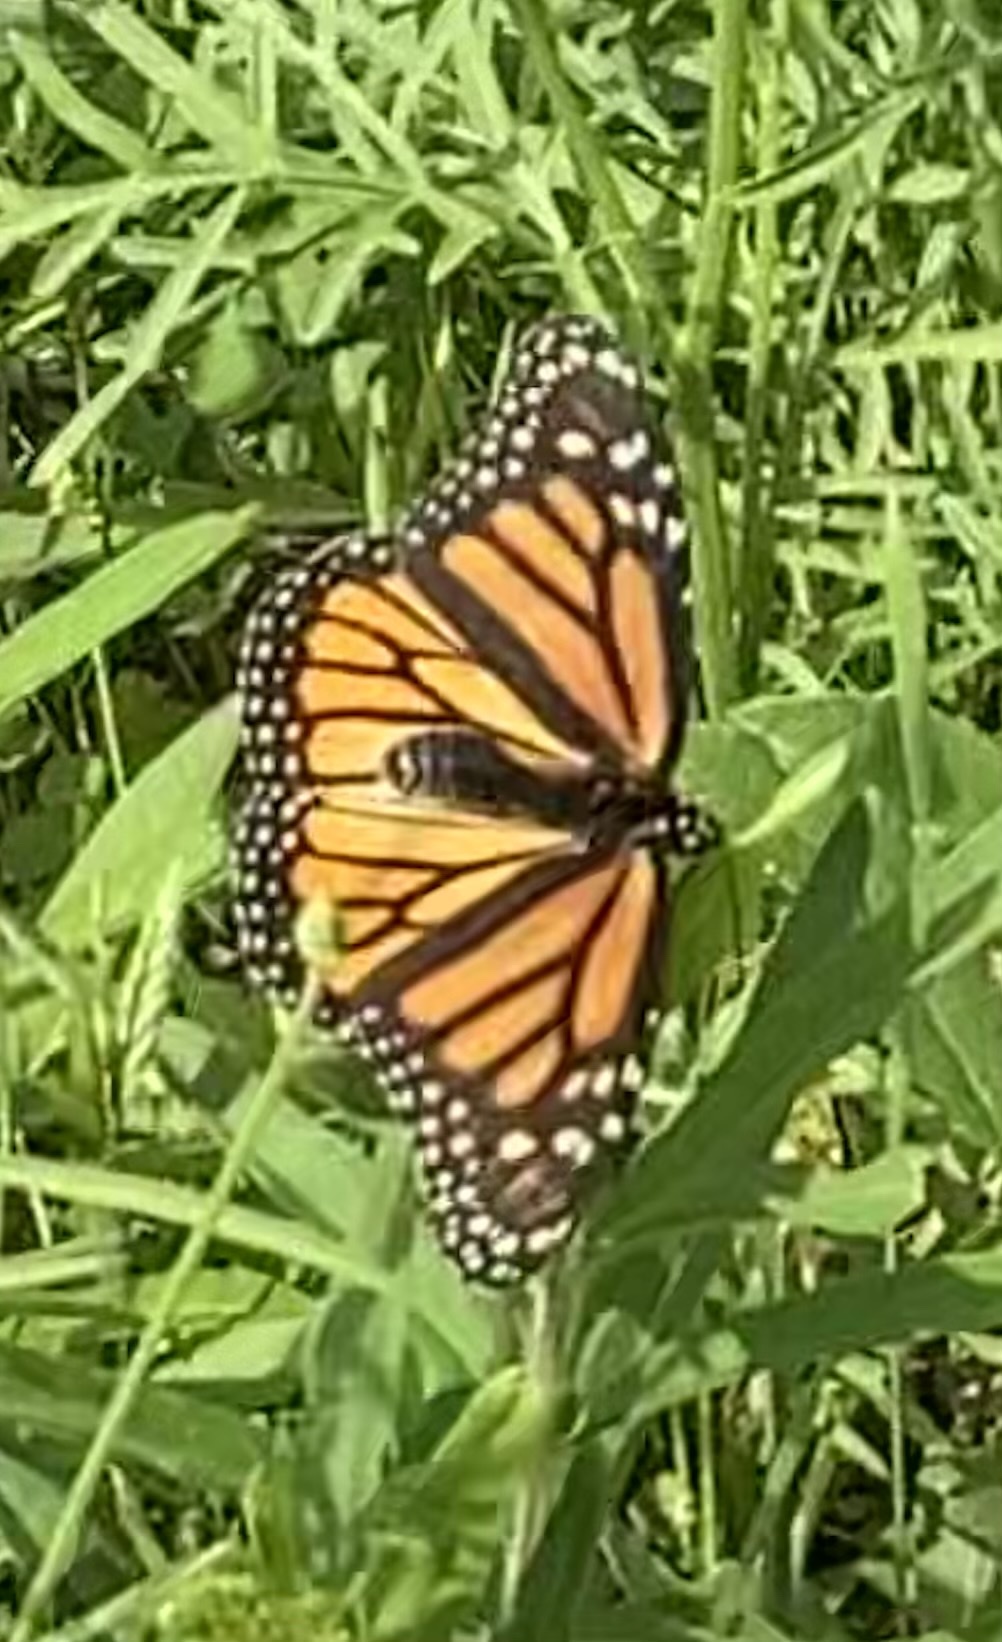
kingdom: Animalia
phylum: Arthropoda
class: Insecta
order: Lepidoptera
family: Nymphalidae
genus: Danaus
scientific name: Danaus plexippus
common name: Monarch
